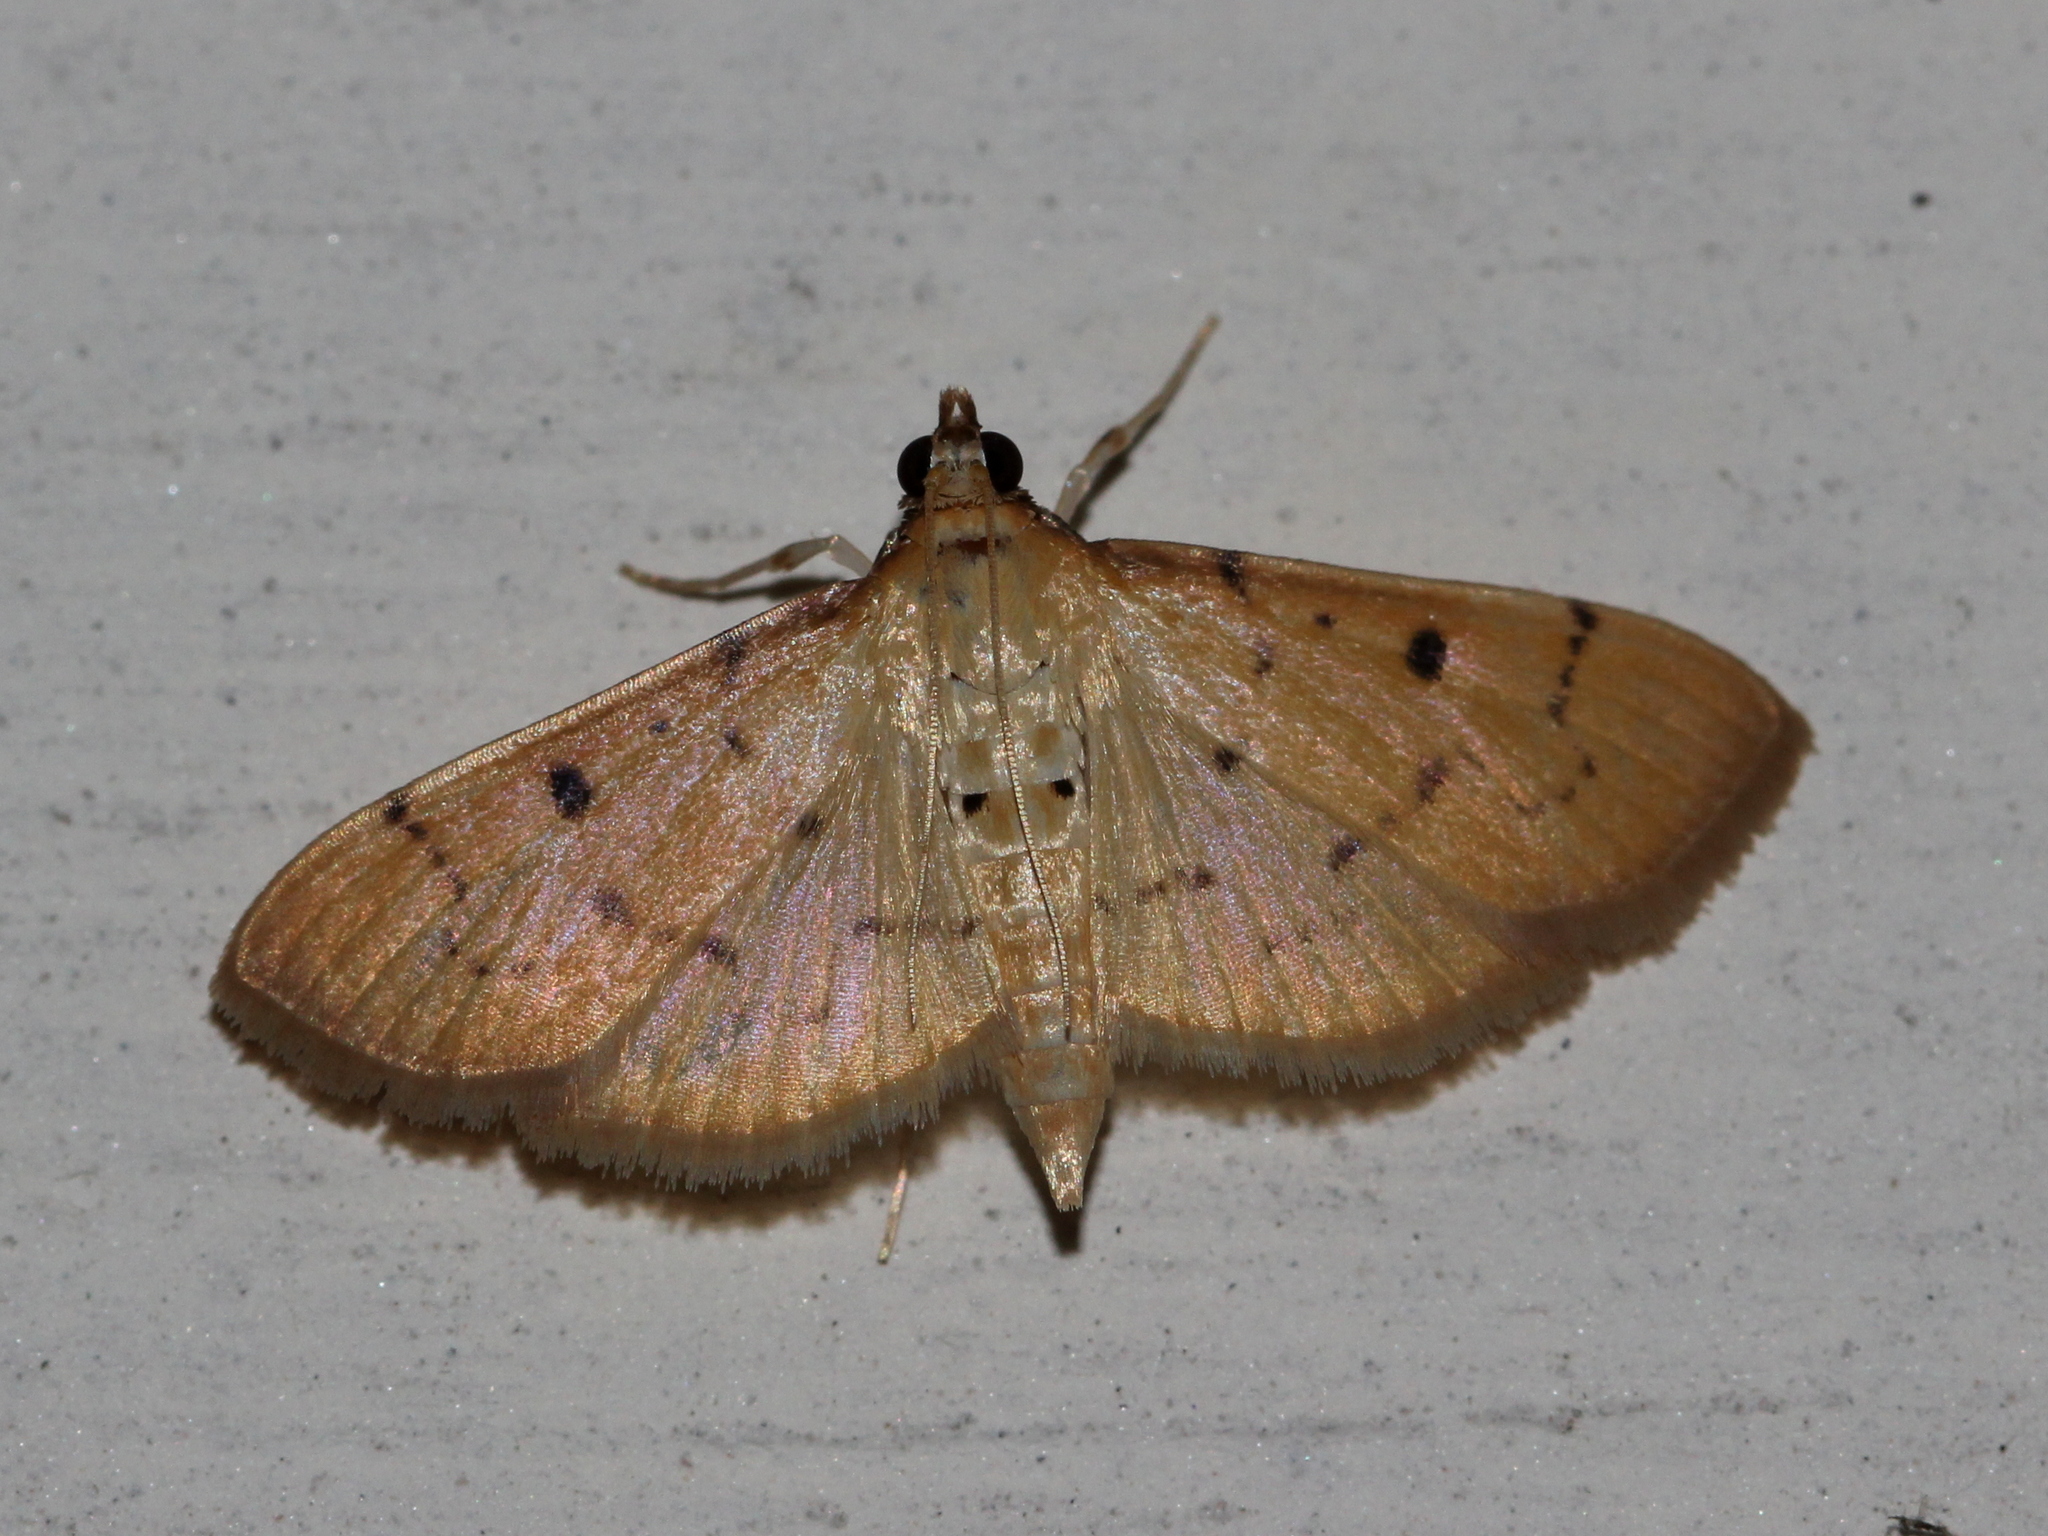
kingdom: Animalia
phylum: Arthropoda
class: Insecta
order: Lepidoptera
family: Crambidae
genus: Herpetogramma
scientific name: Herpetogramma basalis
